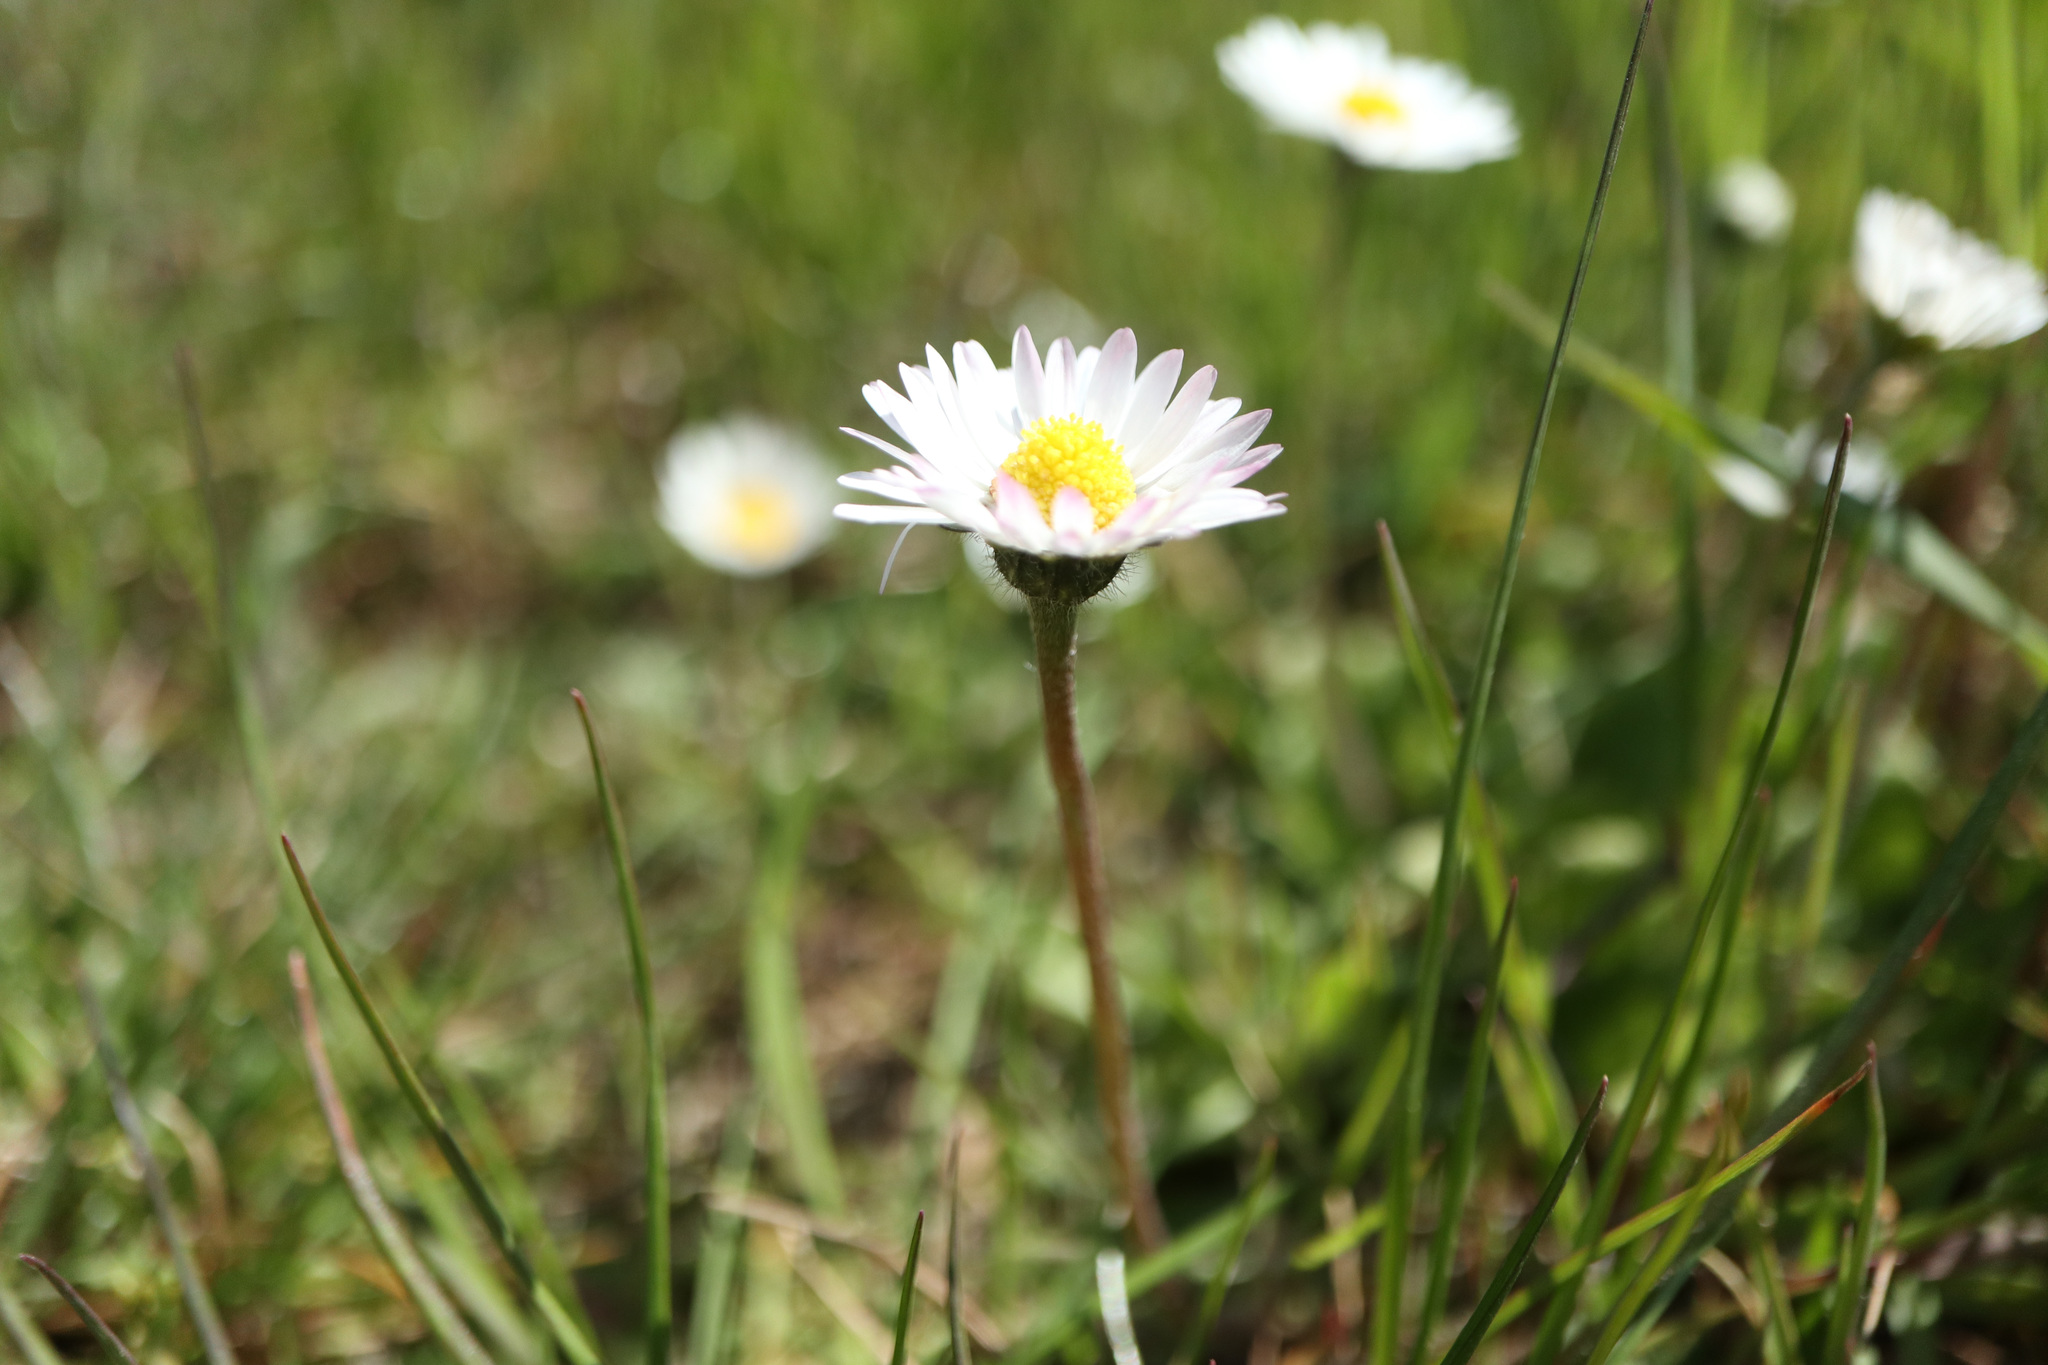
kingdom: Plantae
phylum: Tracheophyta
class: Magnoliopsida
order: Asterales
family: Asteraceae
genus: Bellis
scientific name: Bellis perennis
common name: Lawndaisy
